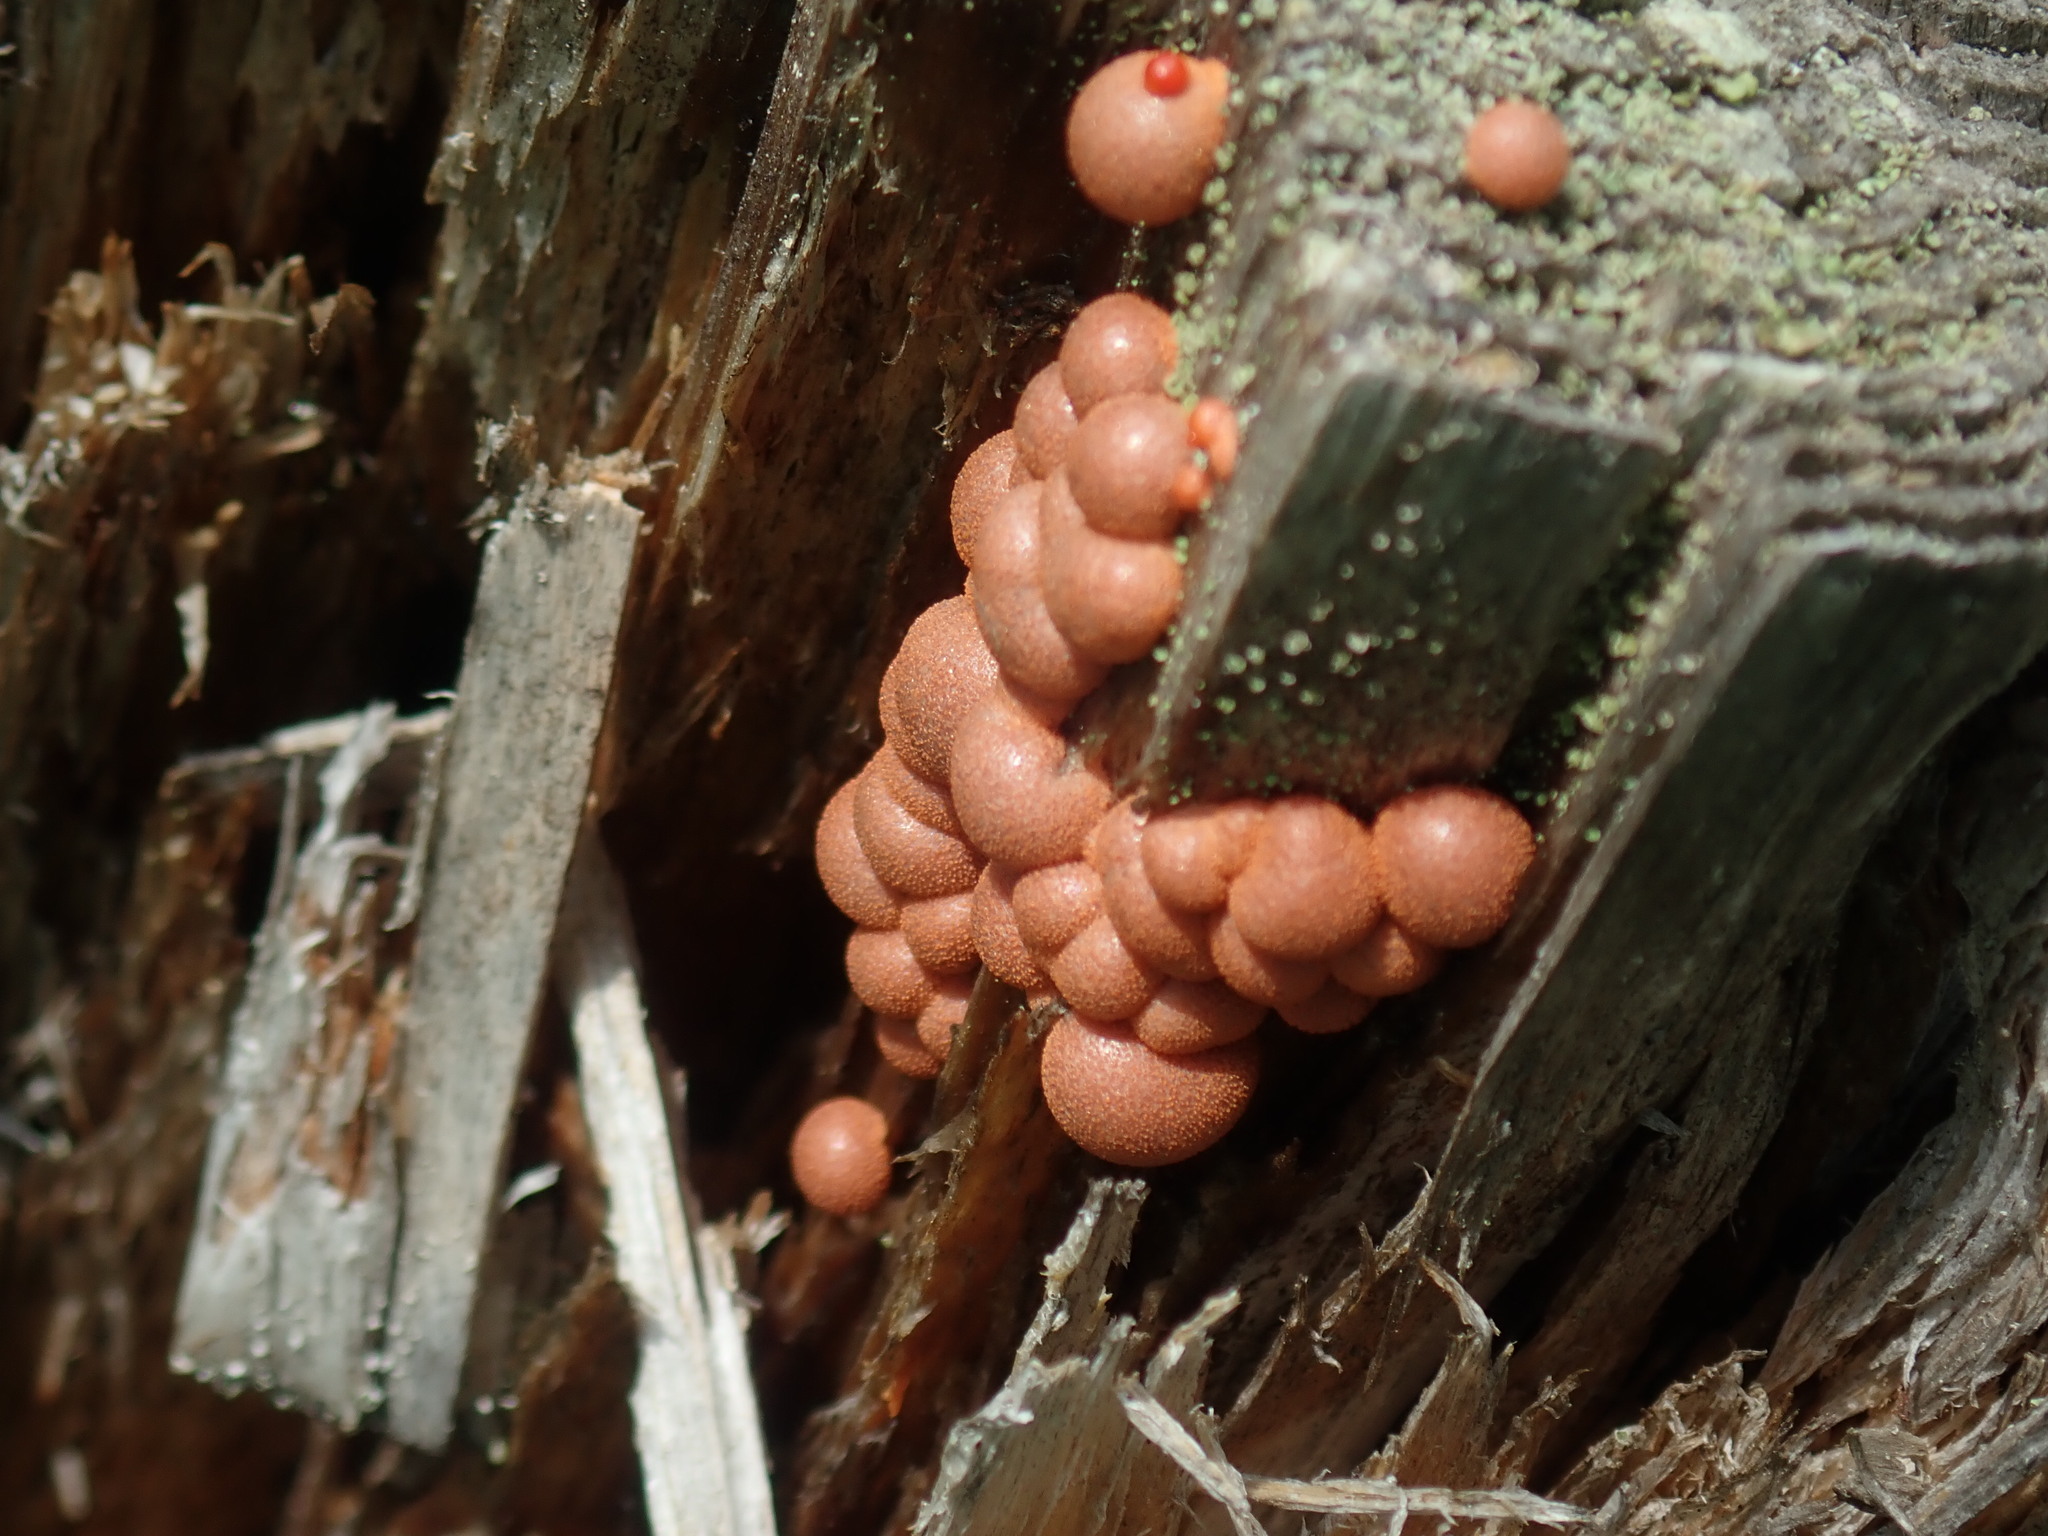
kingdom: Protozoa
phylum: Mycetozoa
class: Myxomycetes
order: Cribrariales
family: Tubiferaceae
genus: Lycogala
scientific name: Lycogala epidendrum
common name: Wolf's milk
